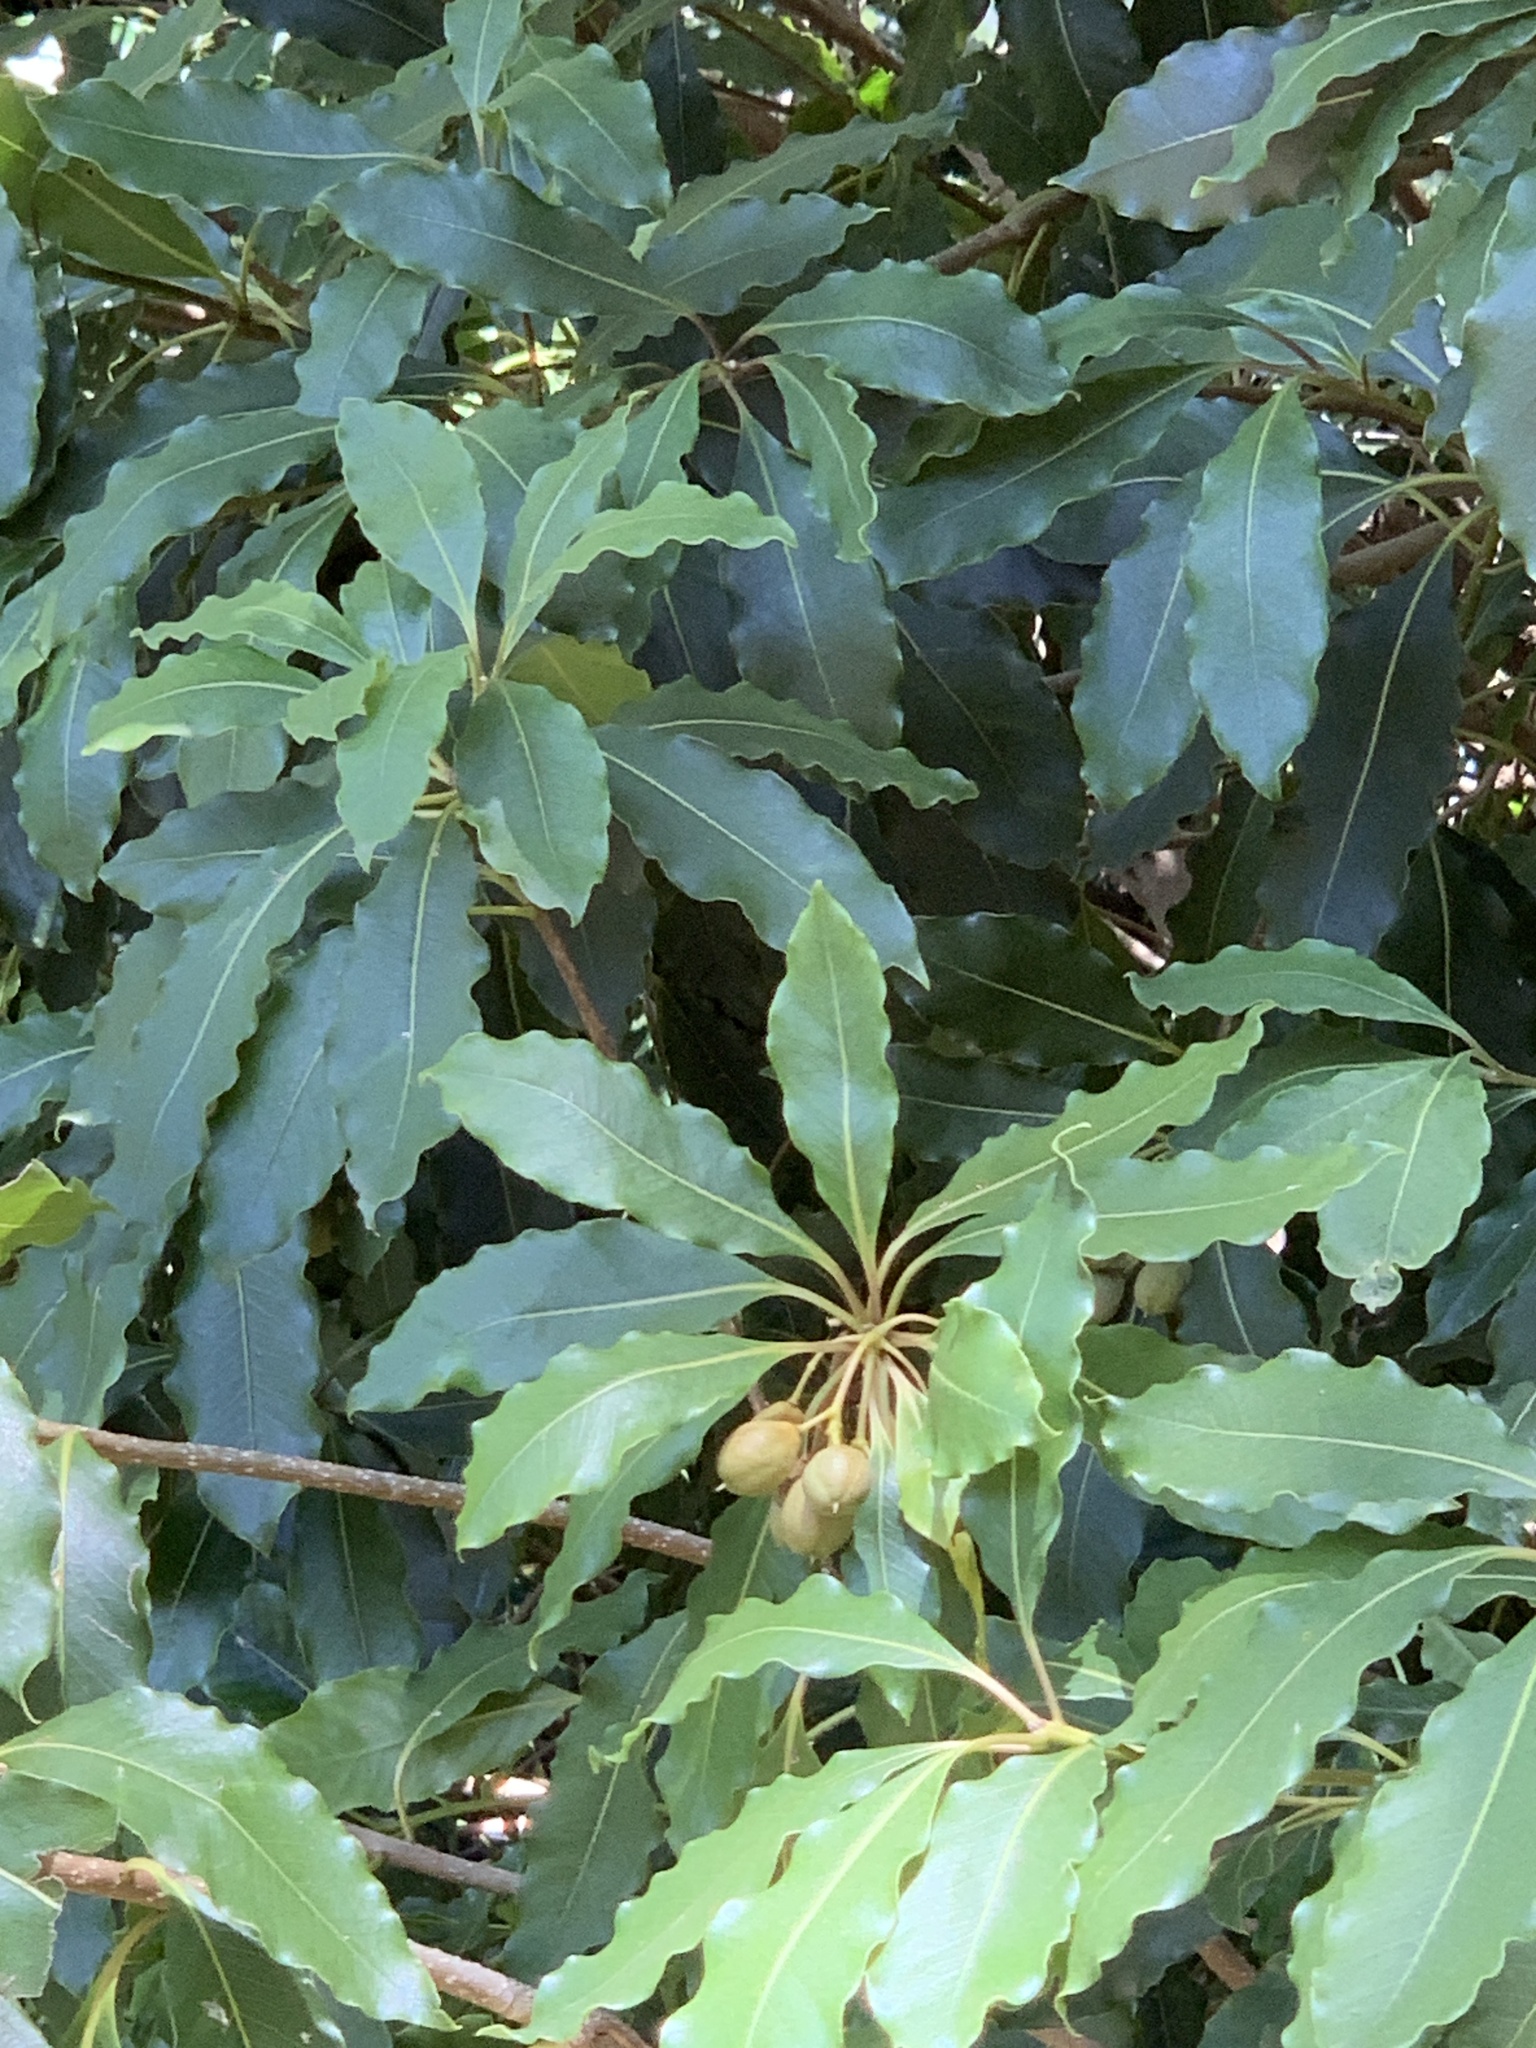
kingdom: Plantae
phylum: Tracheophyta
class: Magnoliopsida
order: Apiales
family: Pittosporaceae
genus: Pittosporum
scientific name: Pittosporum undulatum
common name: Australian cheesewood
